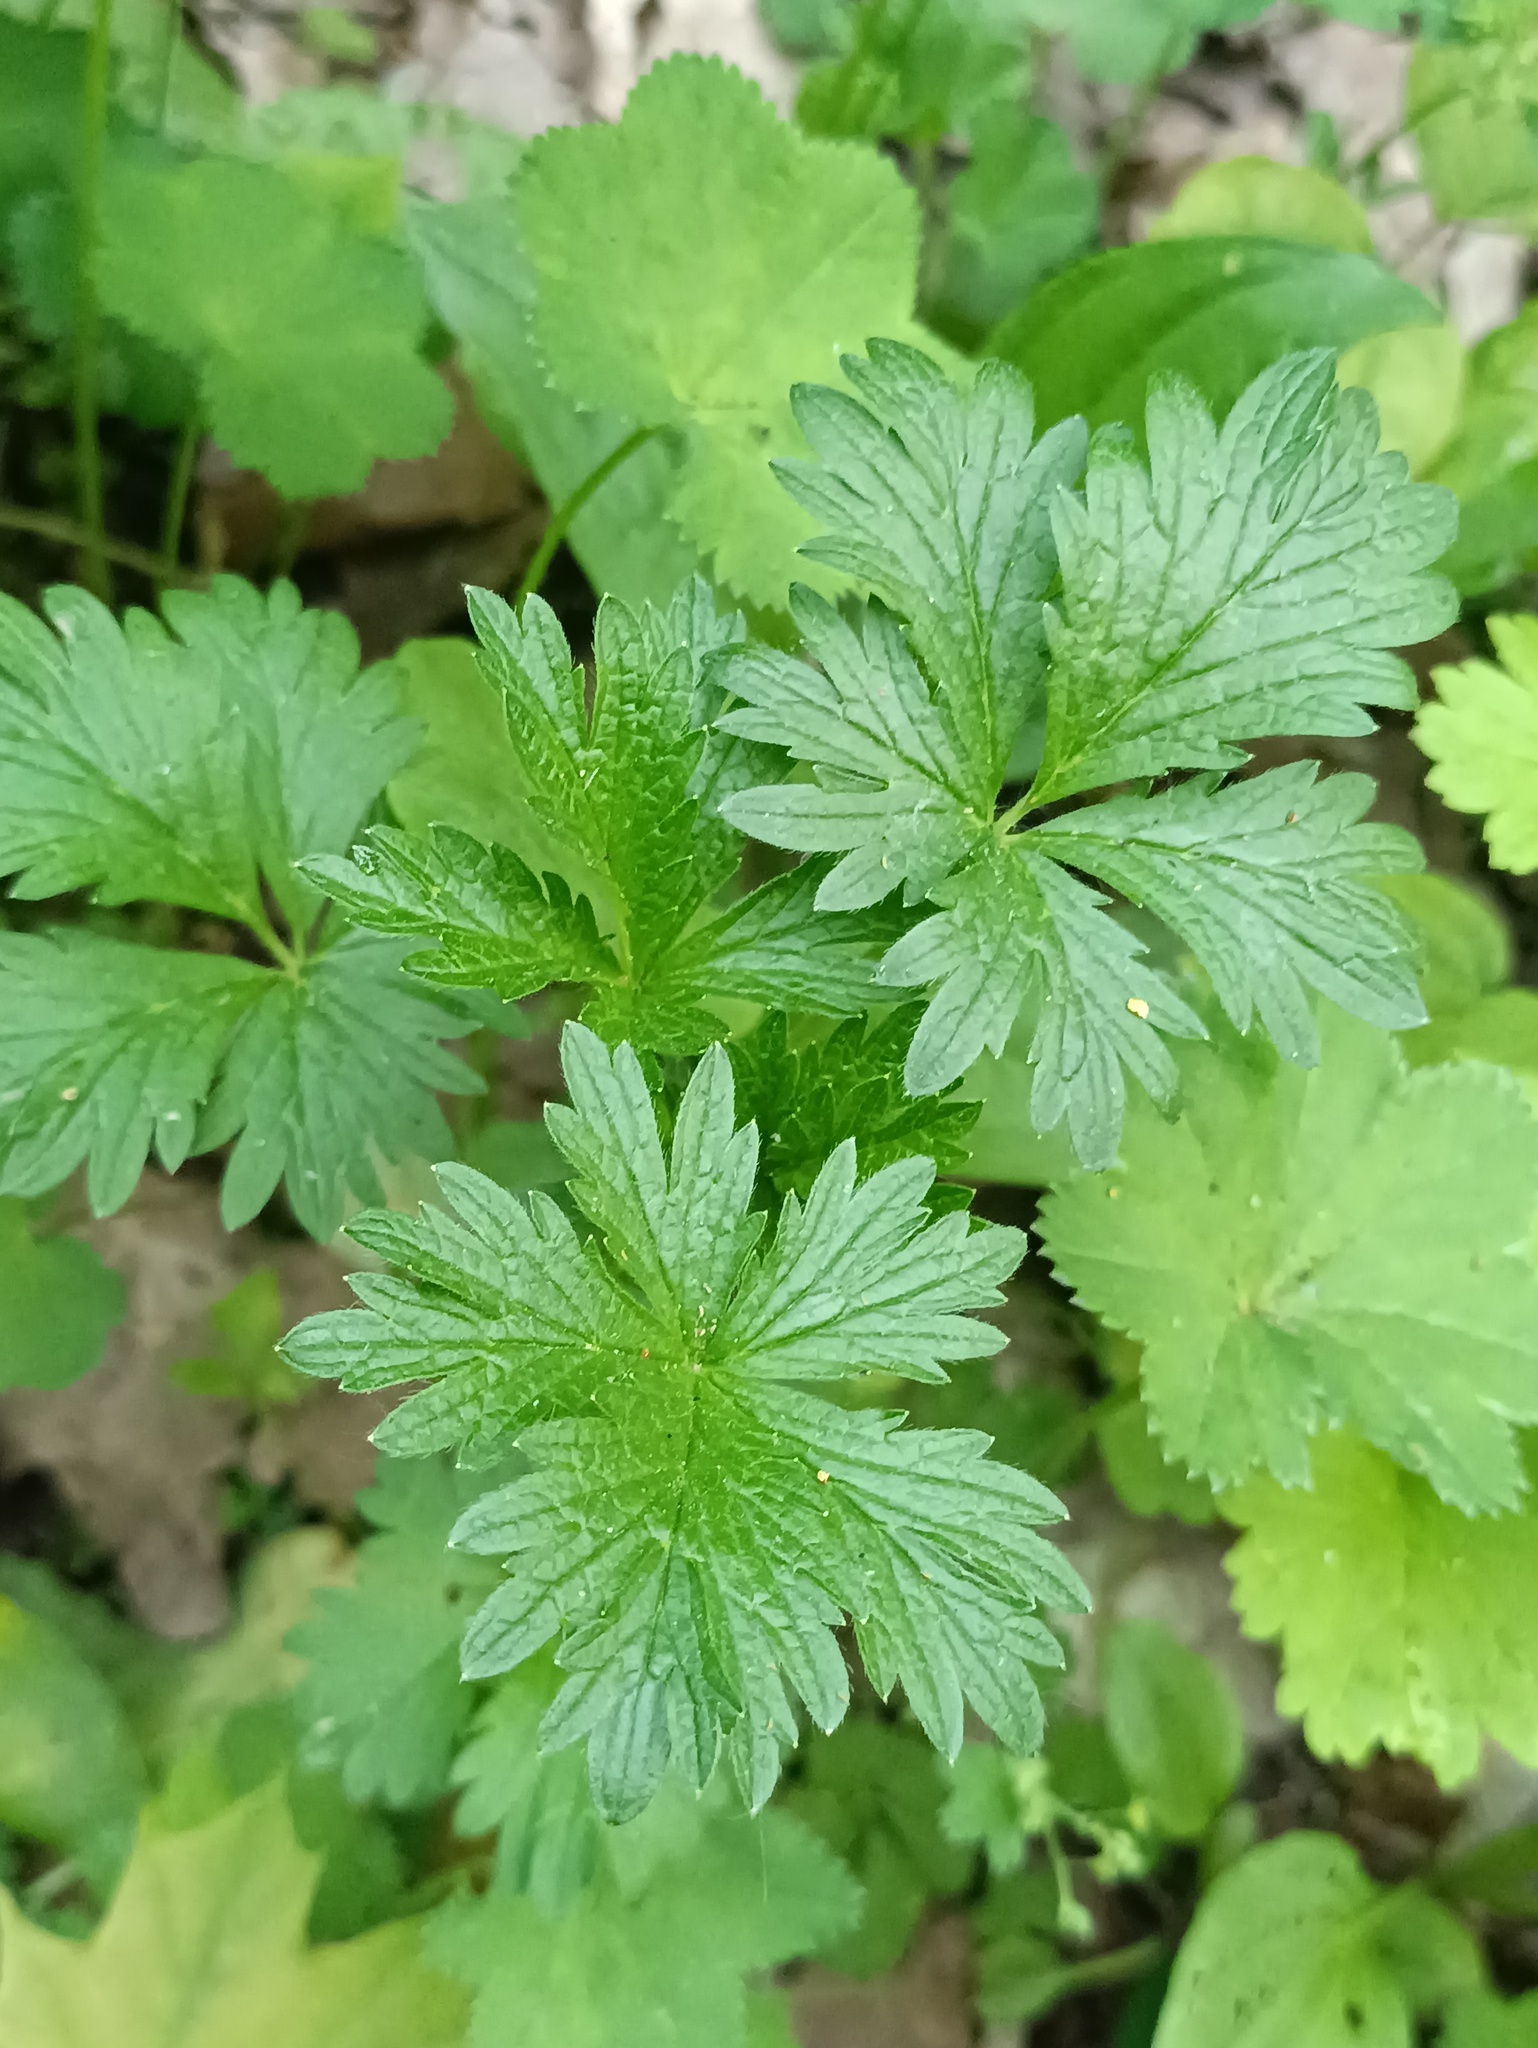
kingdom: Plantae
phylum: Tracheophyta
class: Magnoliopsida
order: Rosales
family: Rosaceae
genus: Potentilla
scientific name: Potentilla intermedia
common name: Downy cinquefoil
